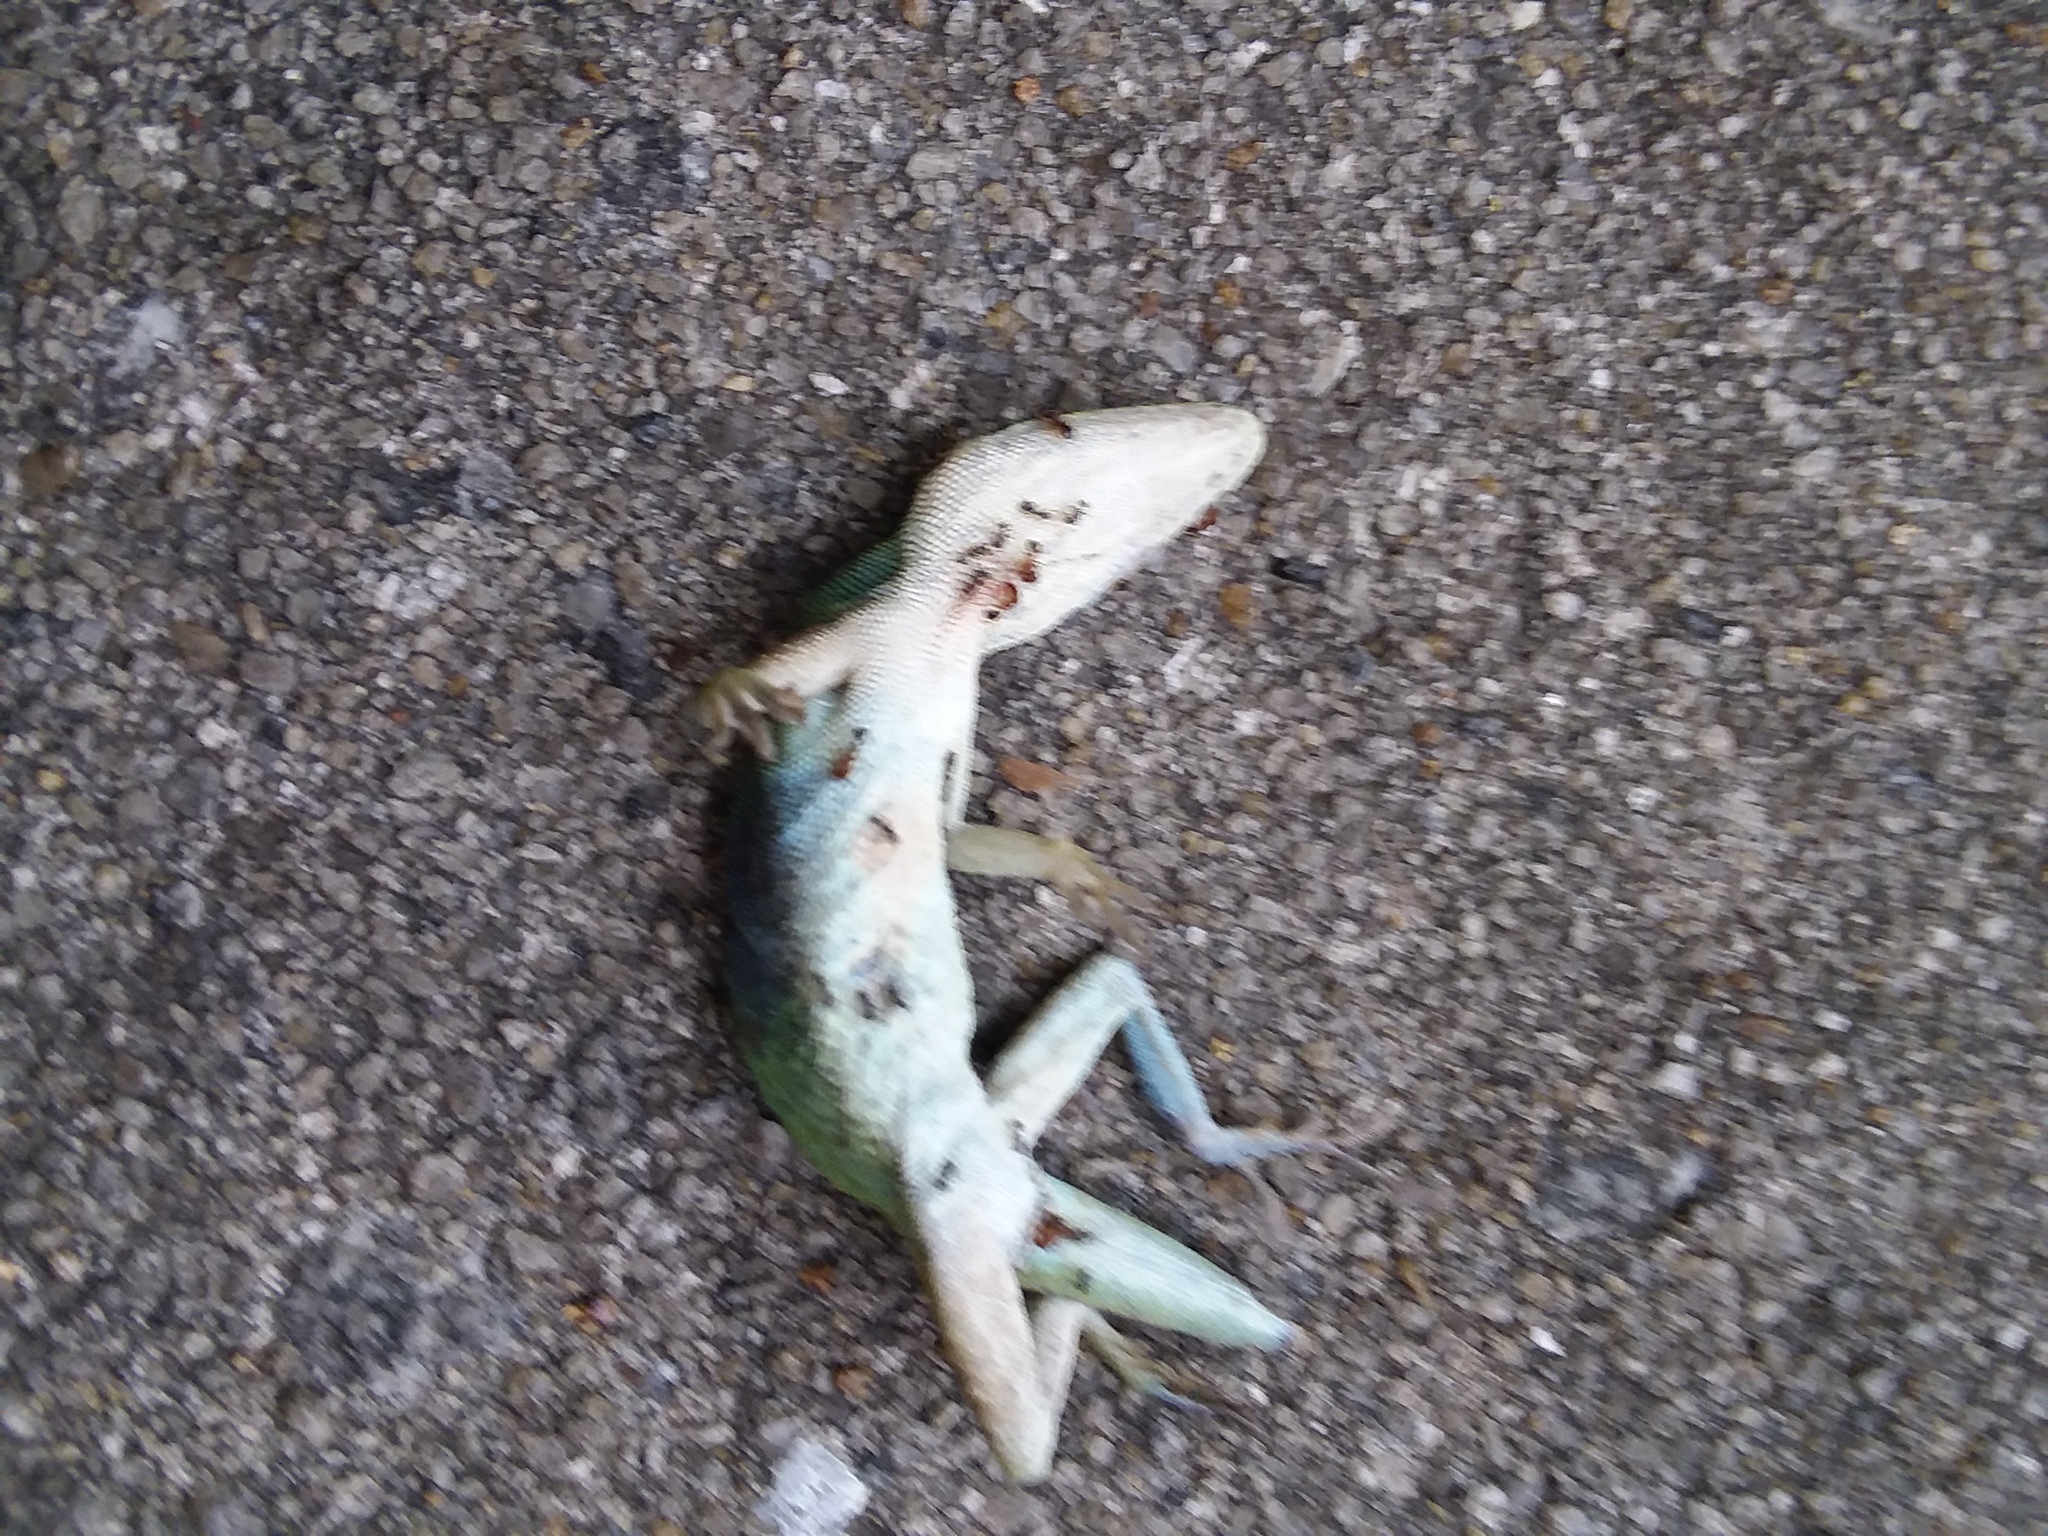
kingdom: Animalia
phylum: Arthropoda
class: Insecta
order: Hymenoptera
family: Formicidae
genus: Solenopsis
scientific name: Solenopsis invicta
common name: Red imported fire ant
